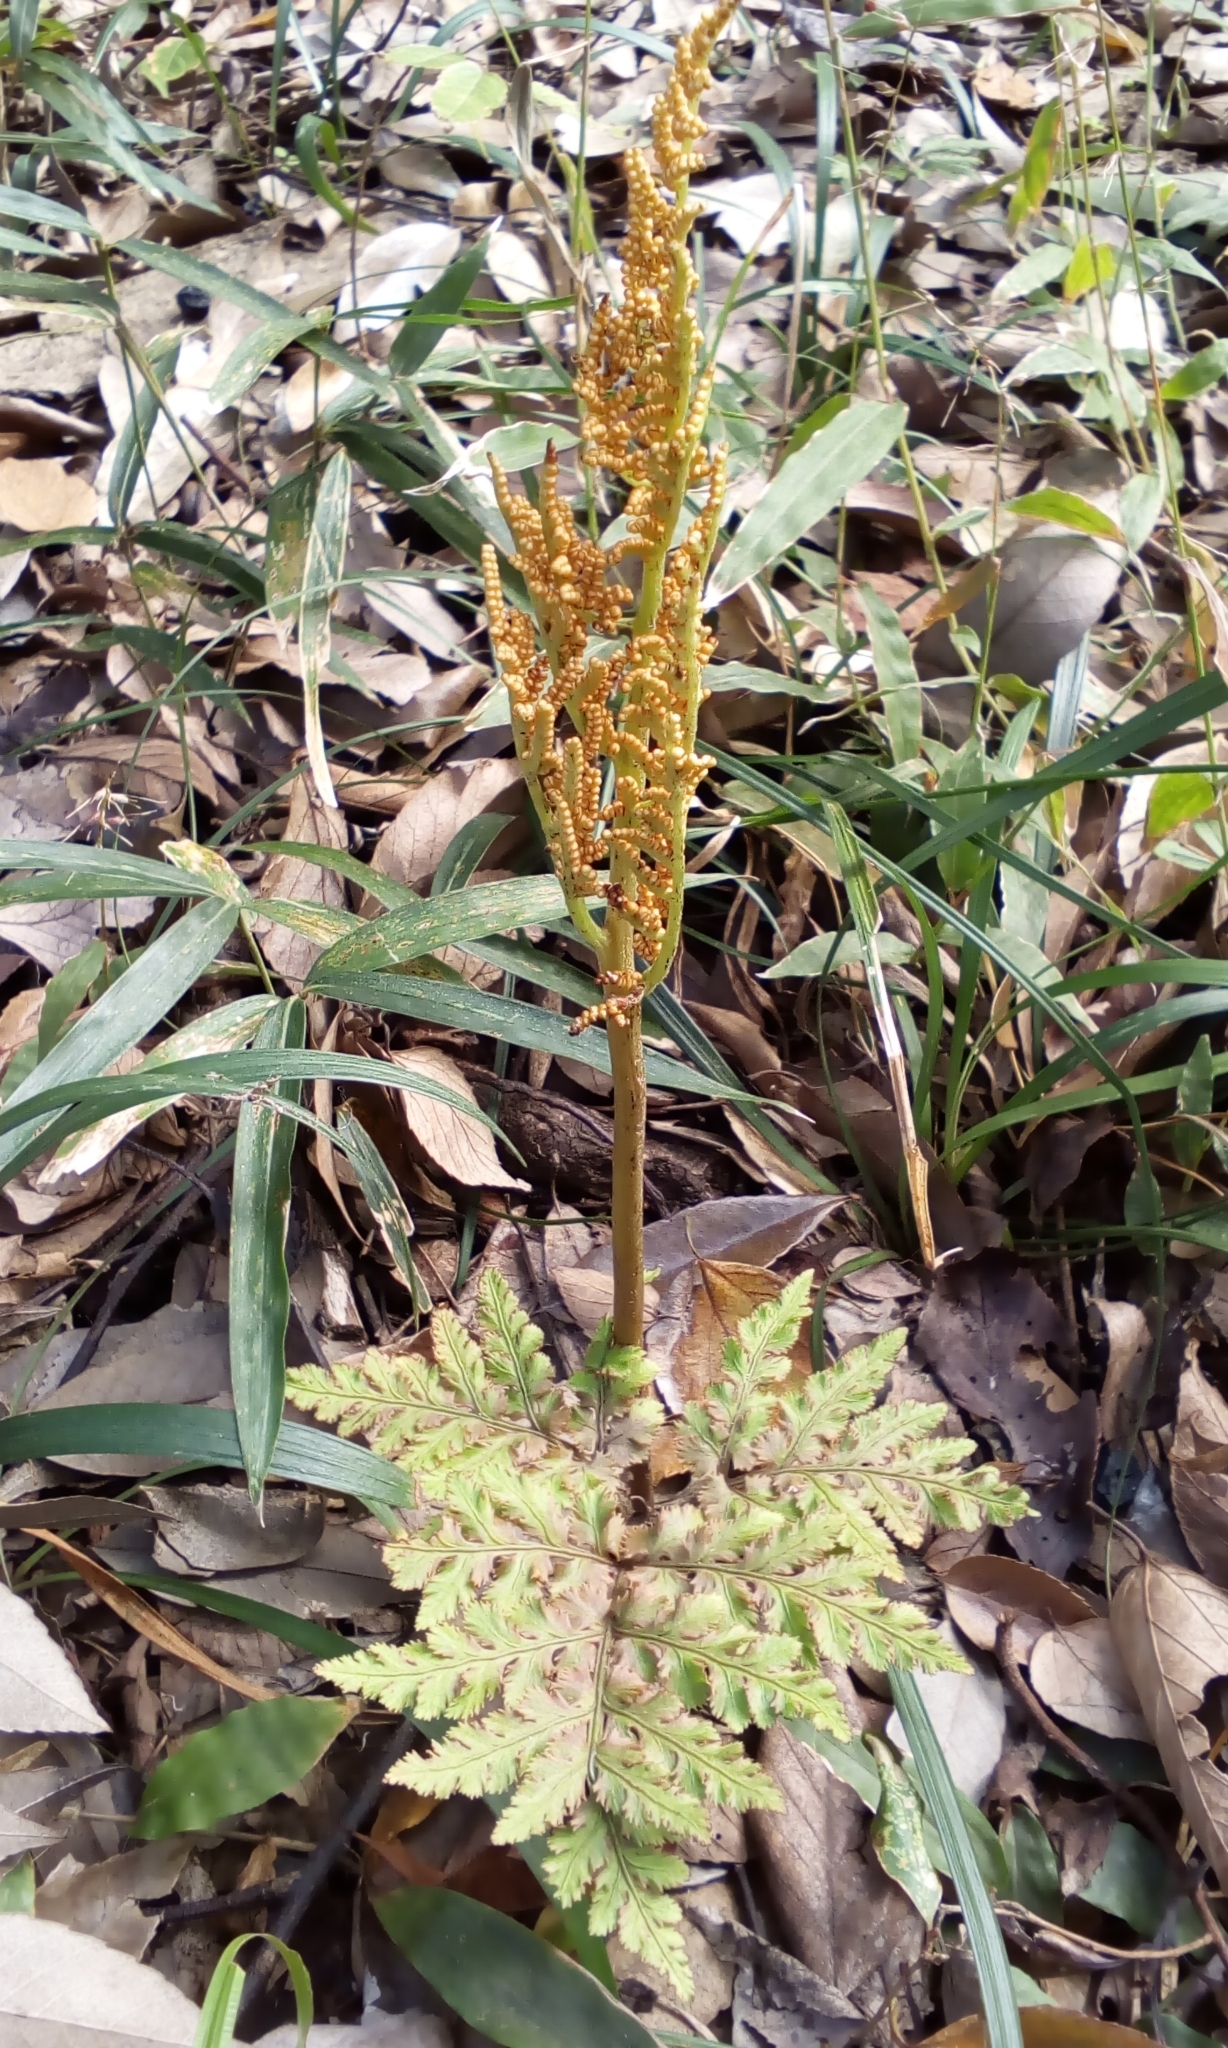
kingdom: Plantae
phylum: Tracheophyta
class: Polypodiopsida
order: Ophioglossales
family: Ophioglossaceae
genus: Sceptridium
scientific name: Sceptridium ternatum
